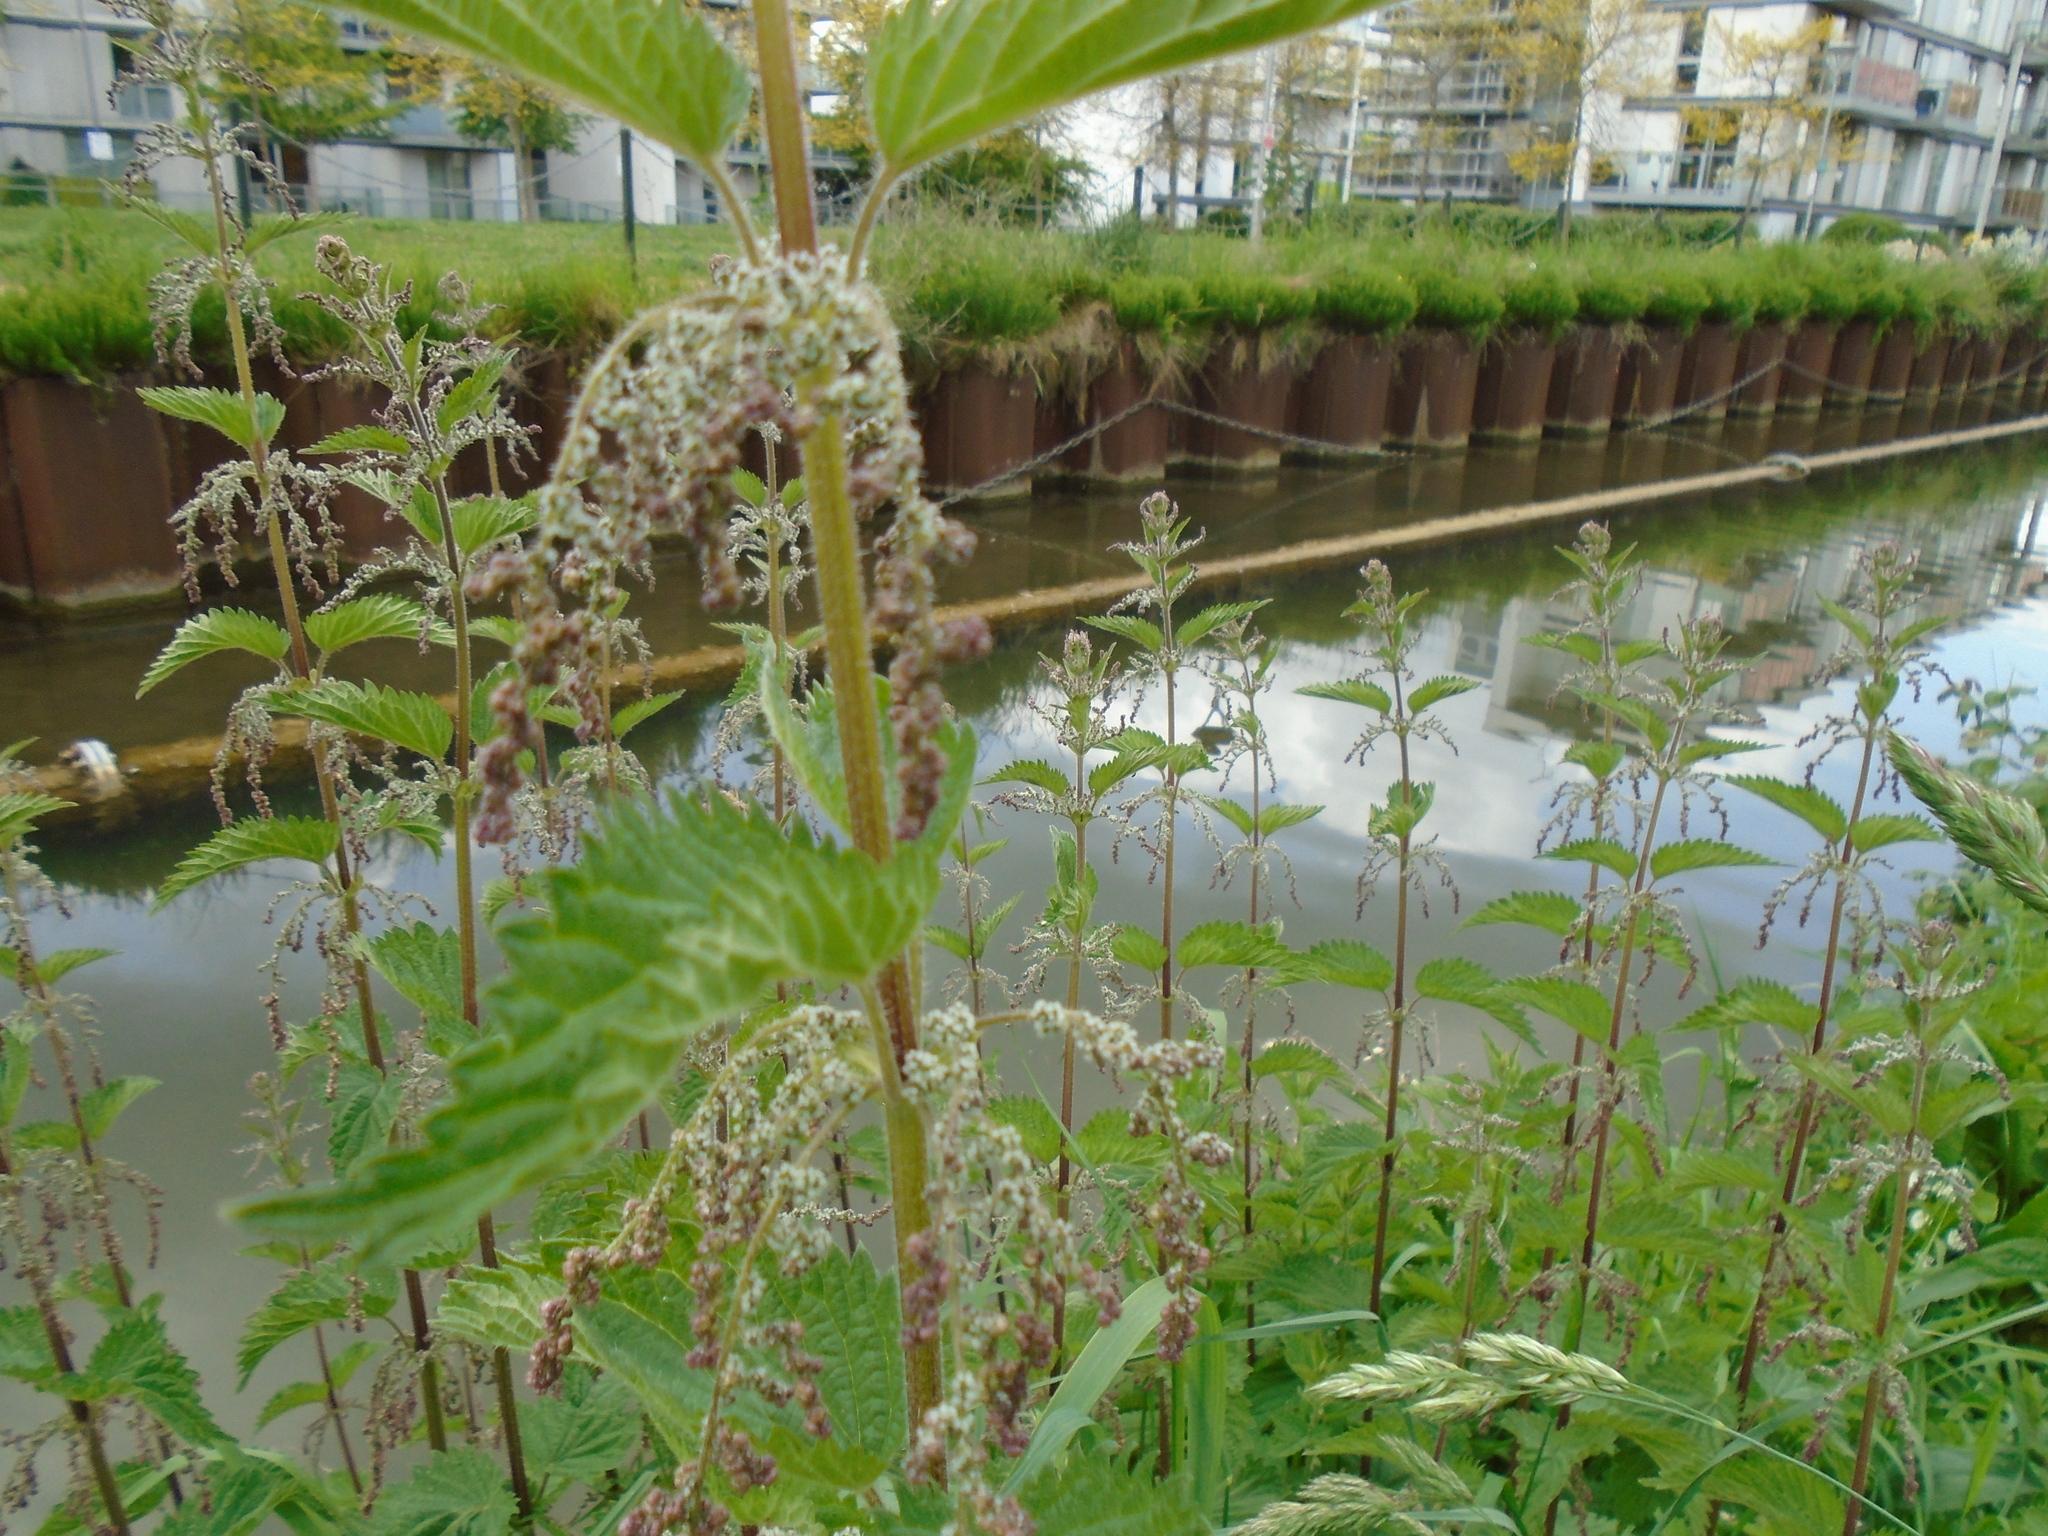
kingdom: Plantae
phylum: Tracheophyta
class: Magnoliopsida
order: Rosales
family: Urticaceae
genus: Urtica
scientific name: Urtica dioica
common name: Common nettle
